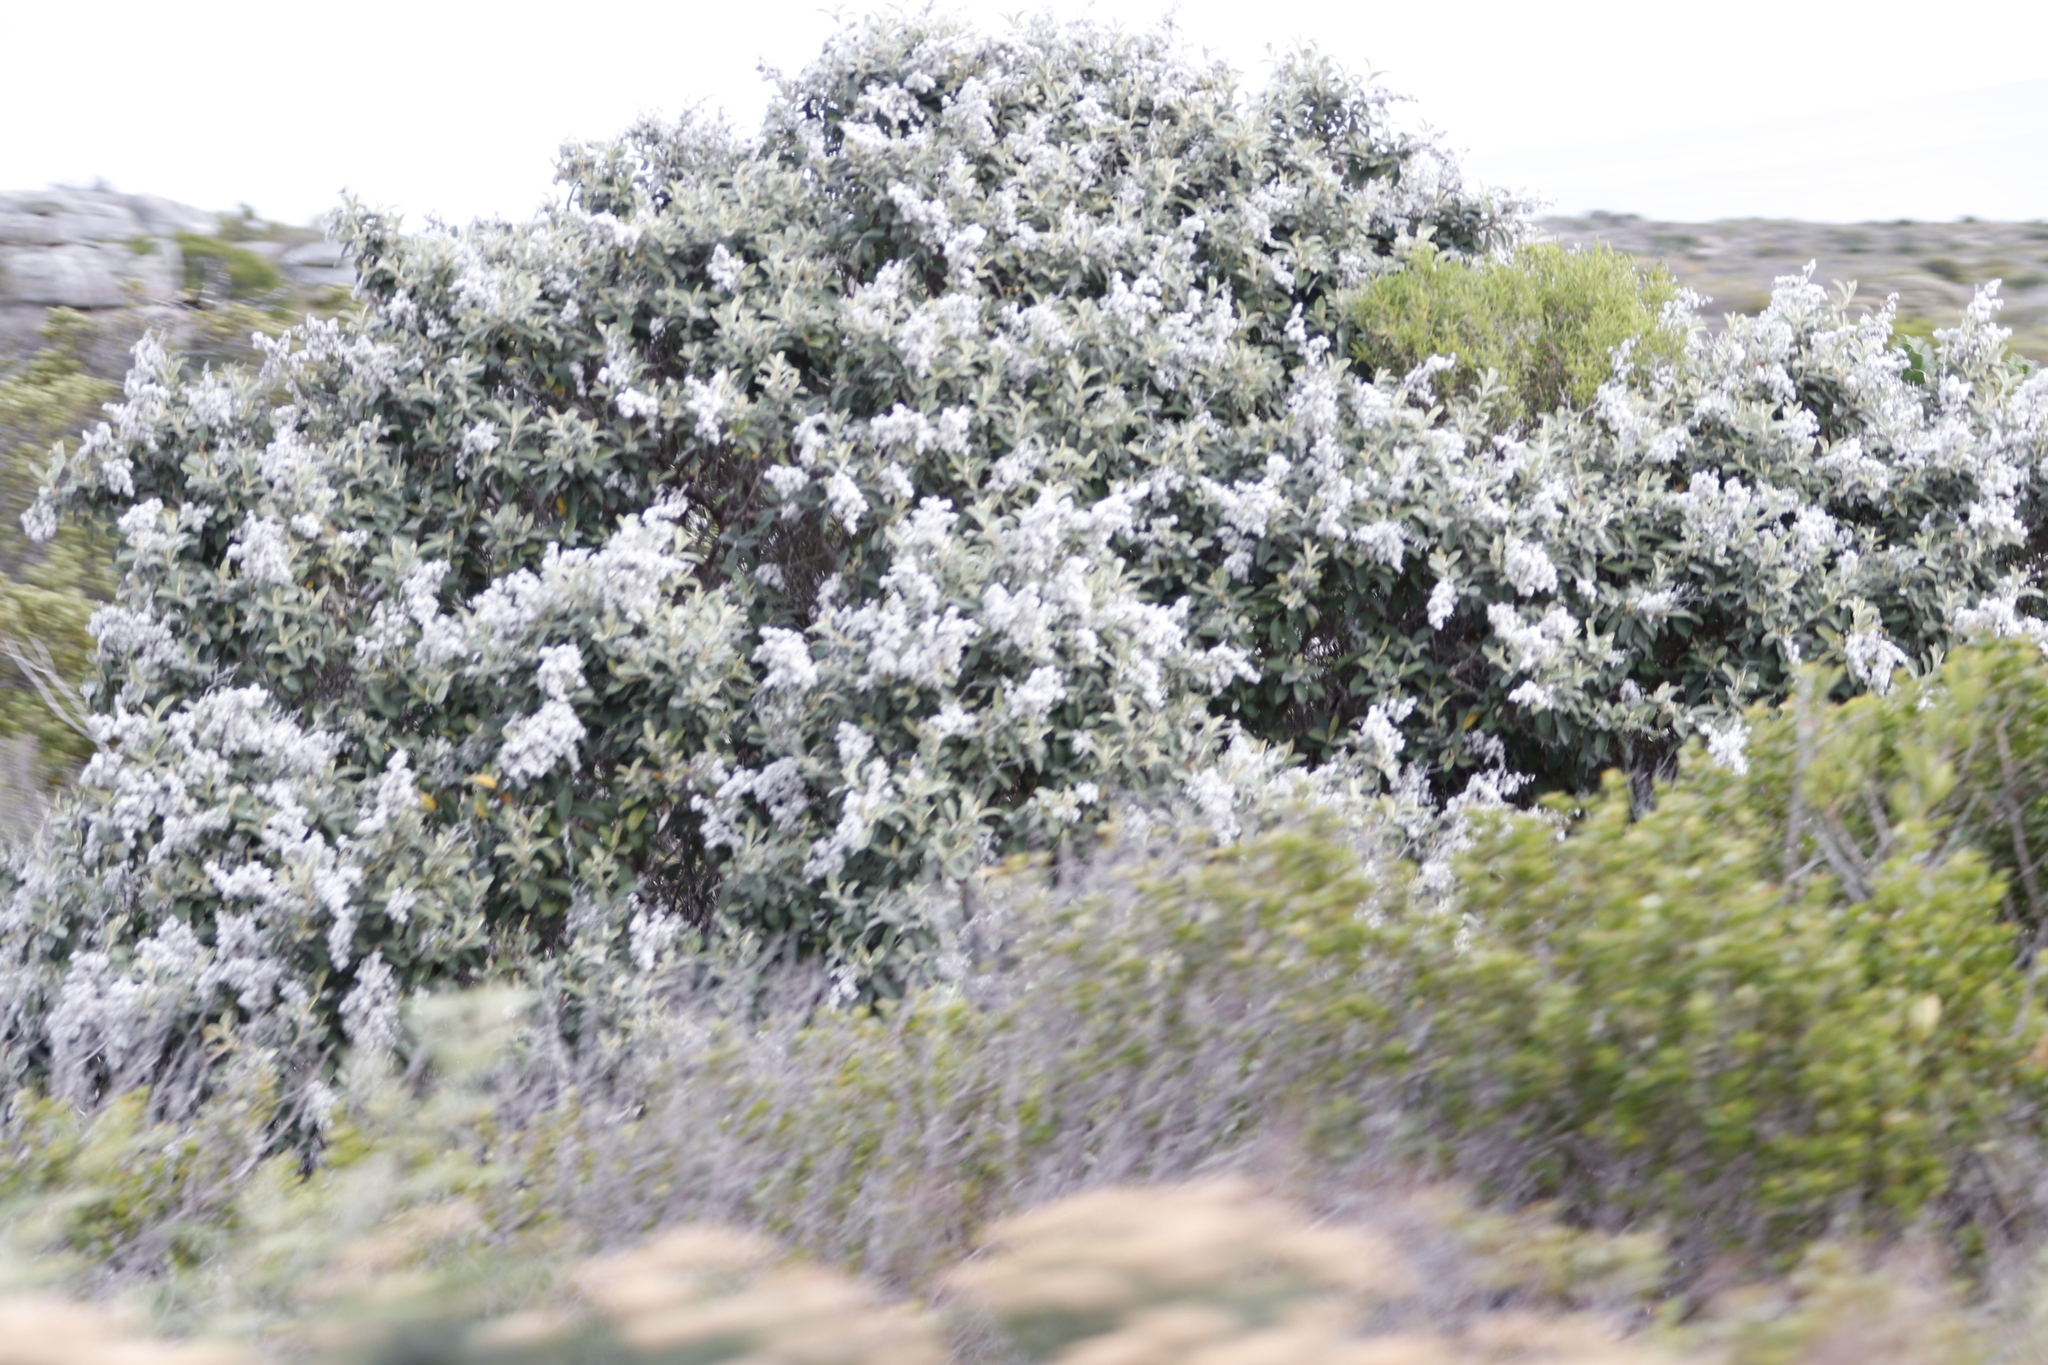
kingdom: Plantae
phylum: Tracheophyta
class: Magnoliopsida
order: Asterales
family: Asteraceae
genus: Tarchonanthus
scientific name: Tarchonanthus littoralis
